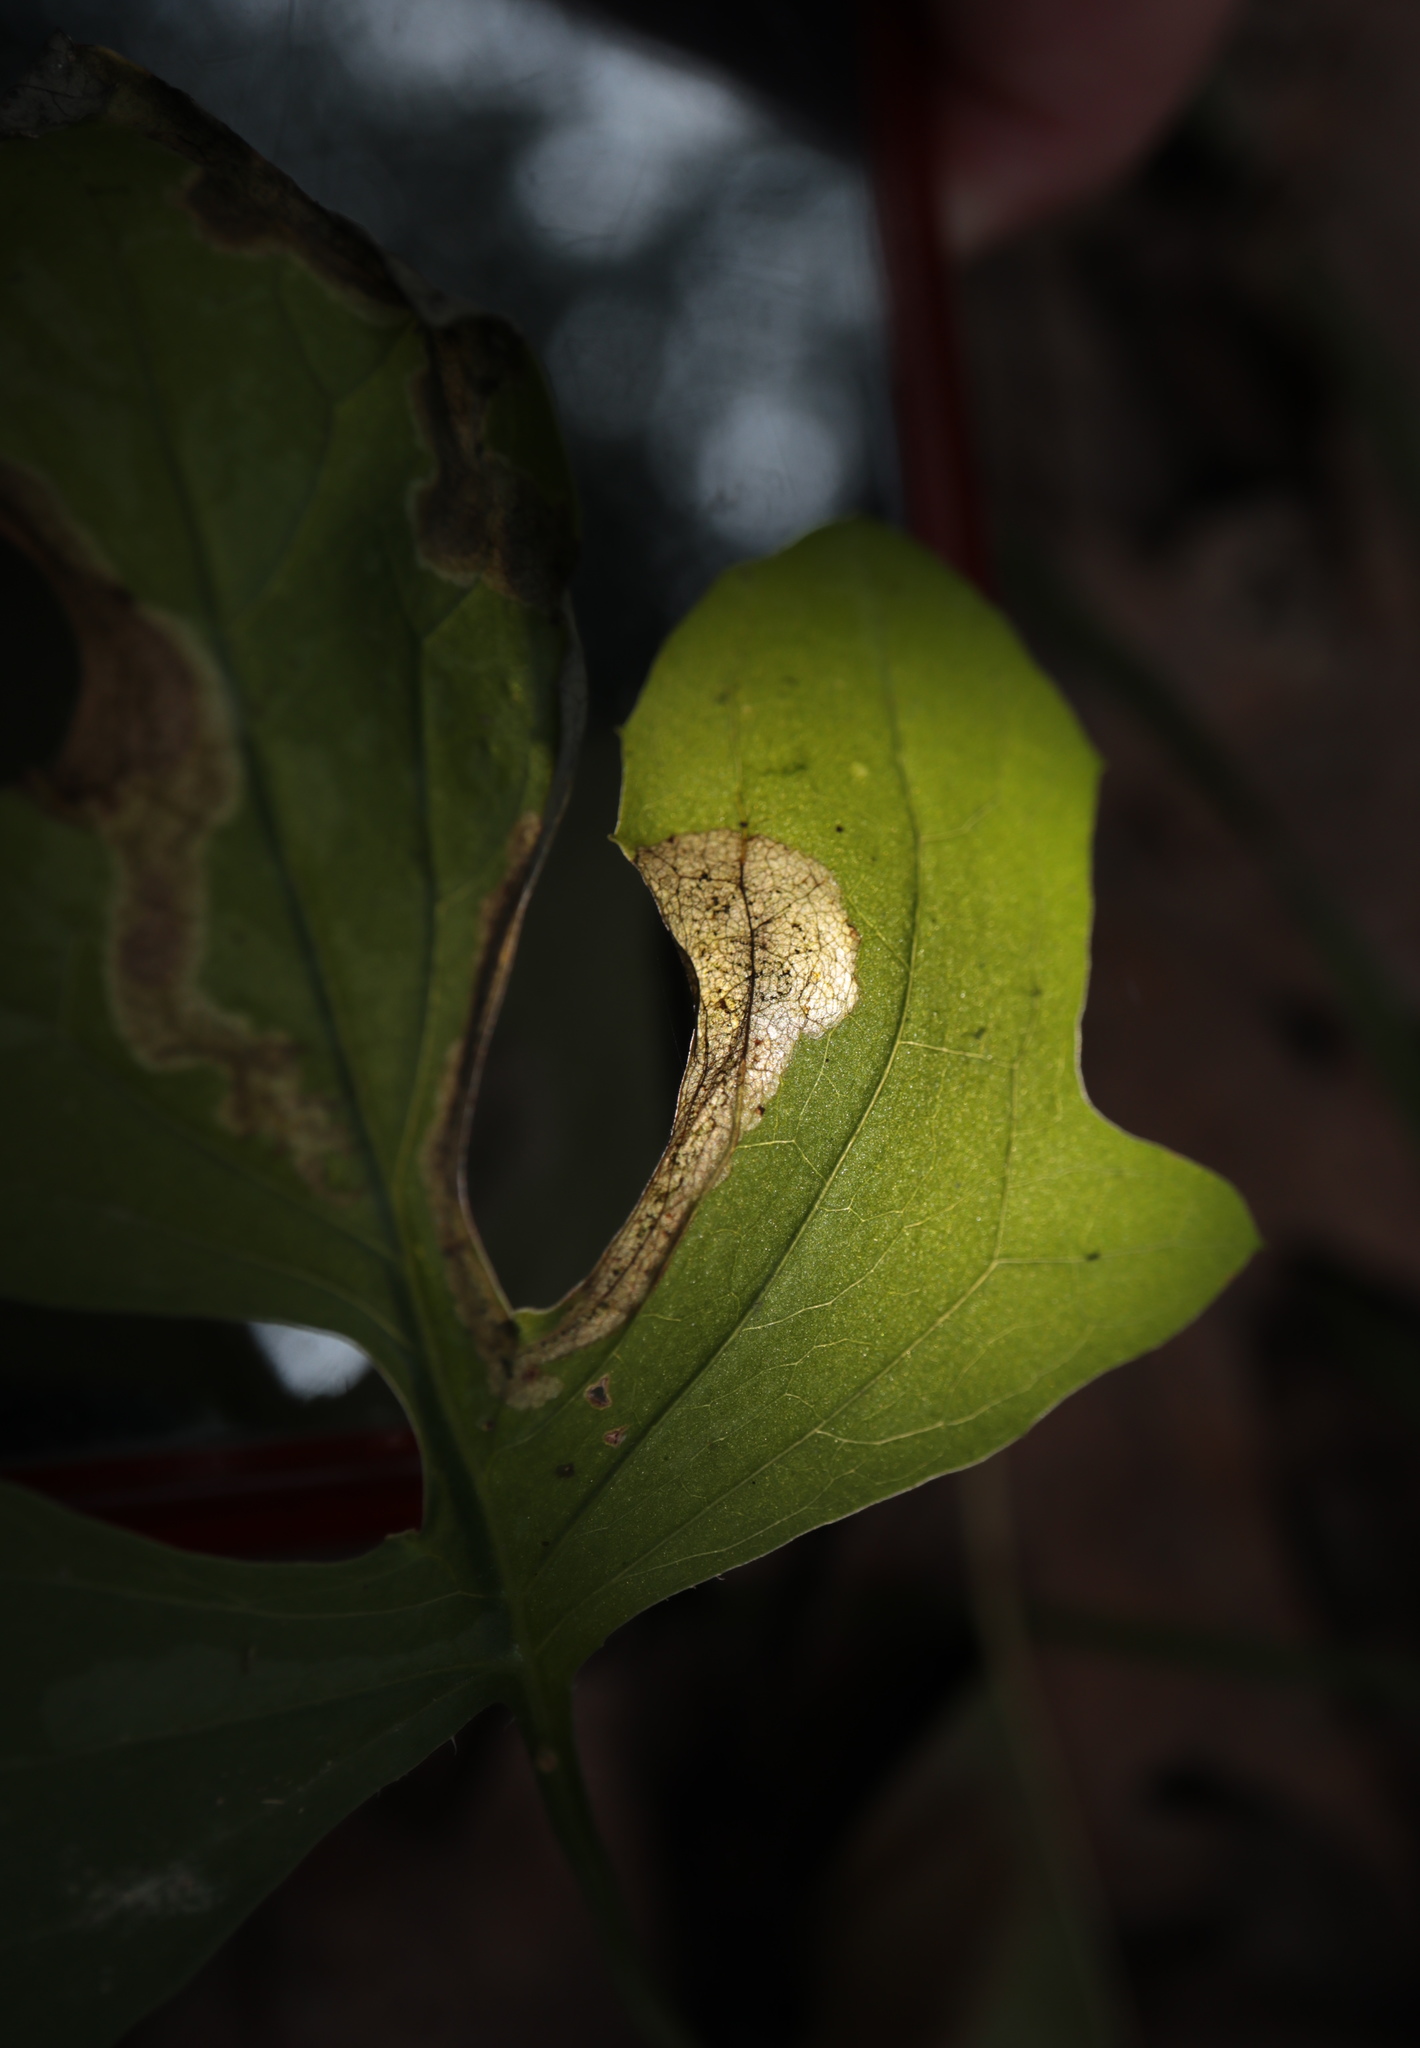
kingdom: Animalia
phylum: Arthropoda
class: Insecta
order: Diptera
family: Agromyzidae
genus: Liriomyza
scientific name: Liriomyza orilliensis
